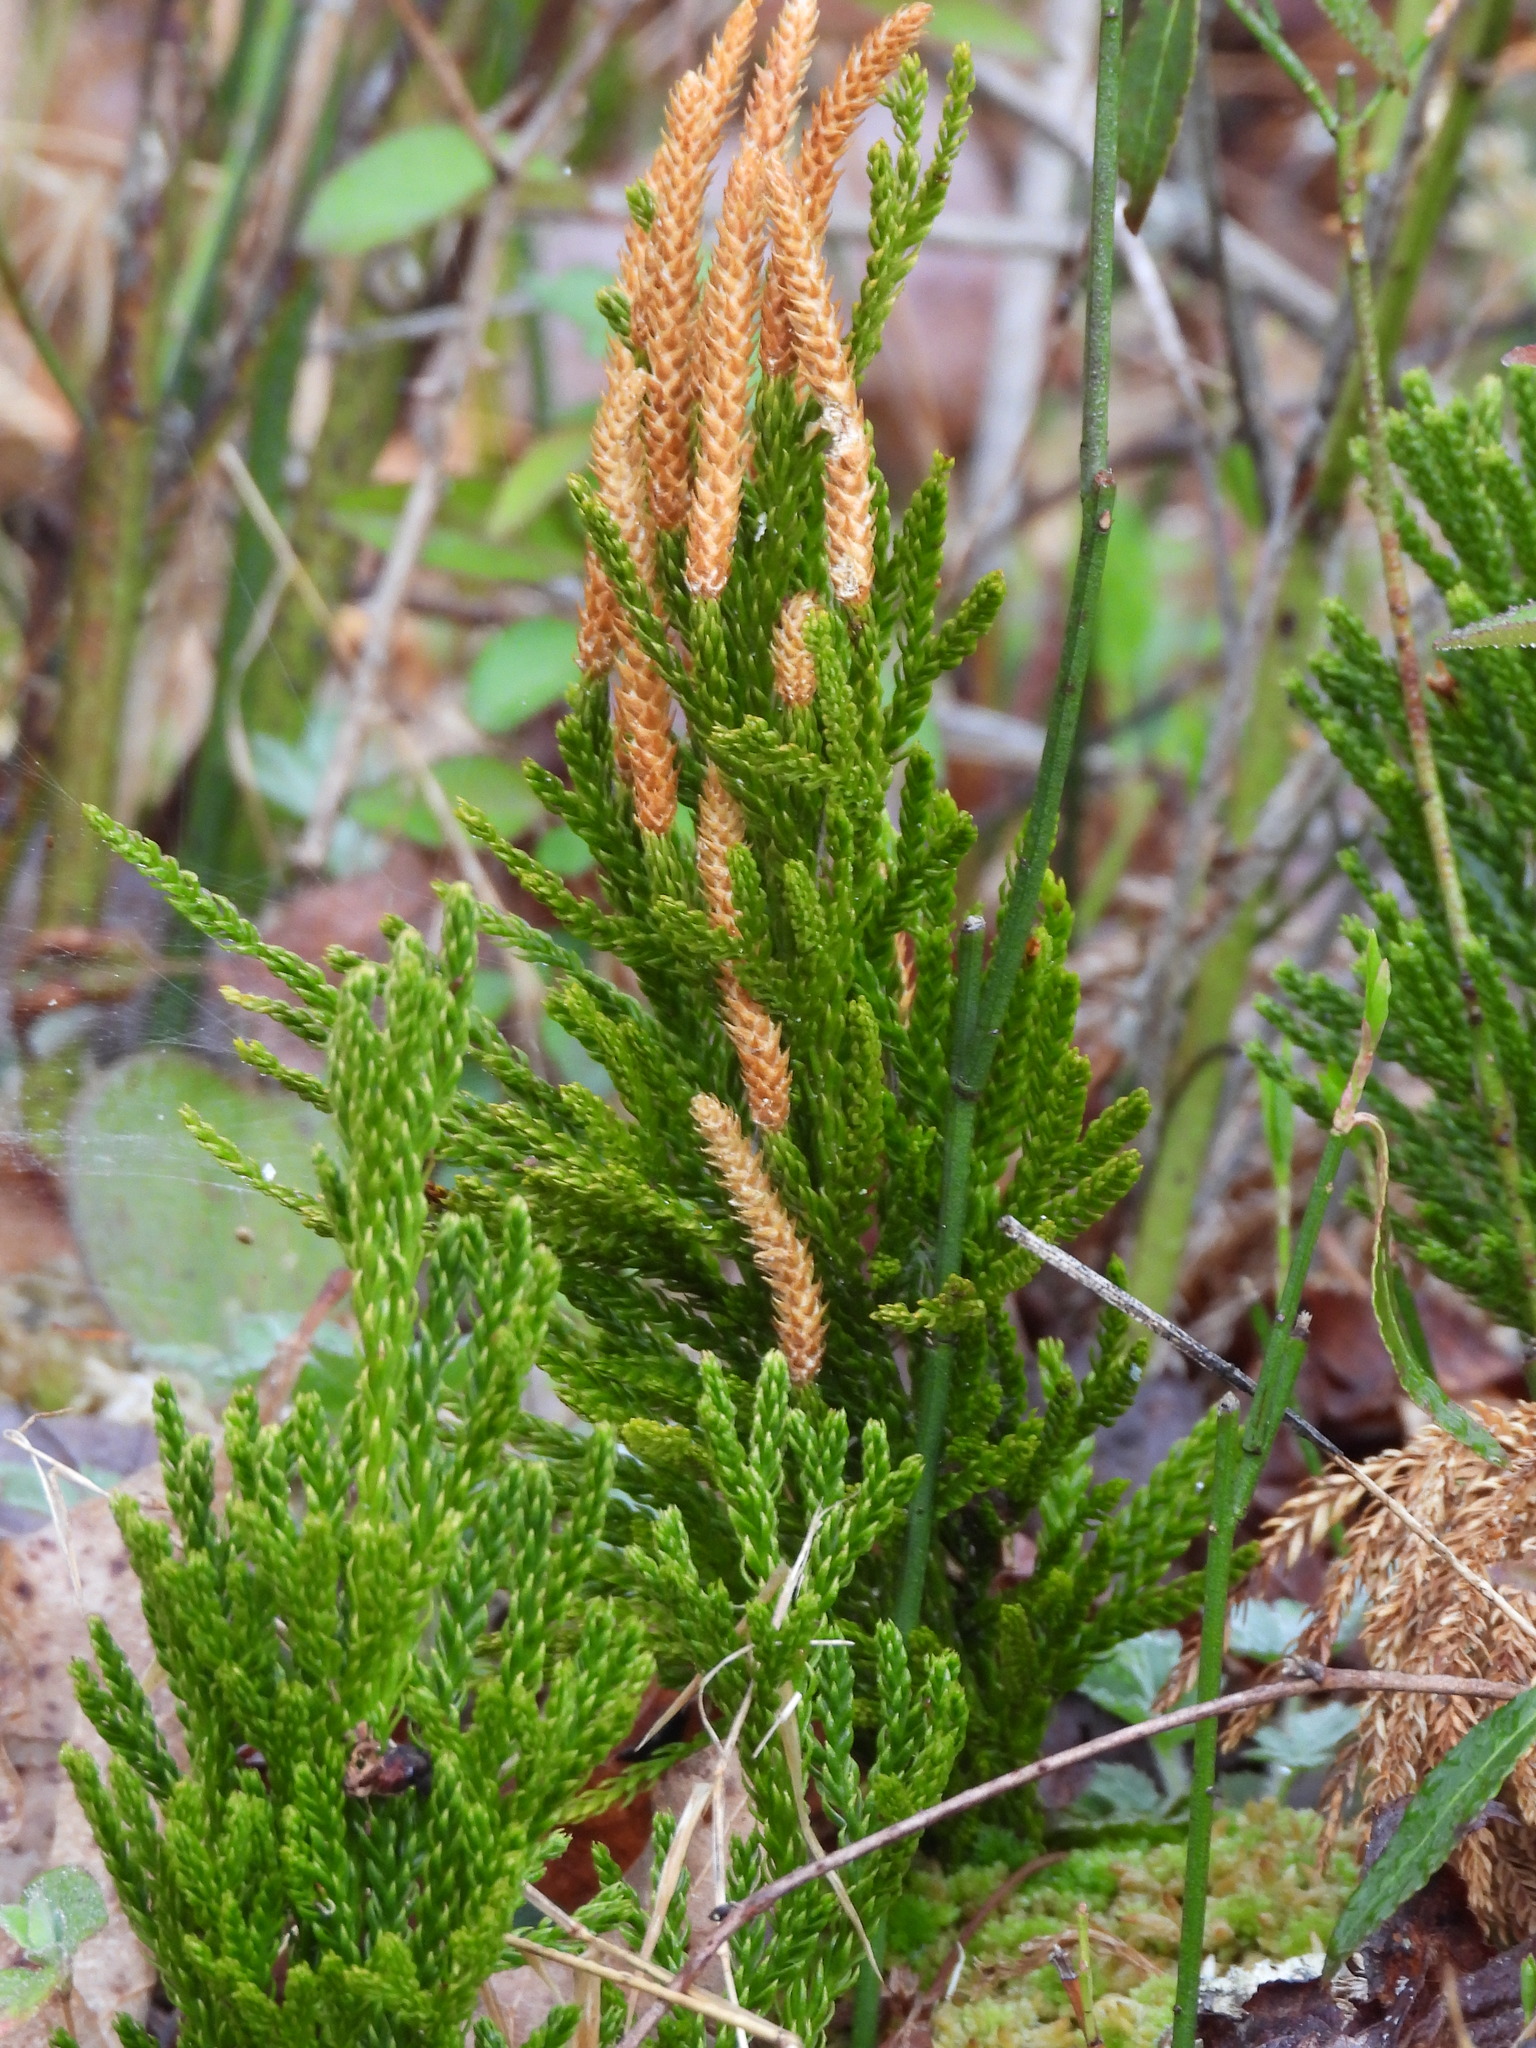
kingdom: Plantae
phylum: Tracheophyta
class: Lycopodiopsida
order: Lycopodiales
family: Lycopodiaceae
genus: Dendrolycopodium
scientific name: Dendrolycopodium hickeyi
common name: Hickey's clubmoss
